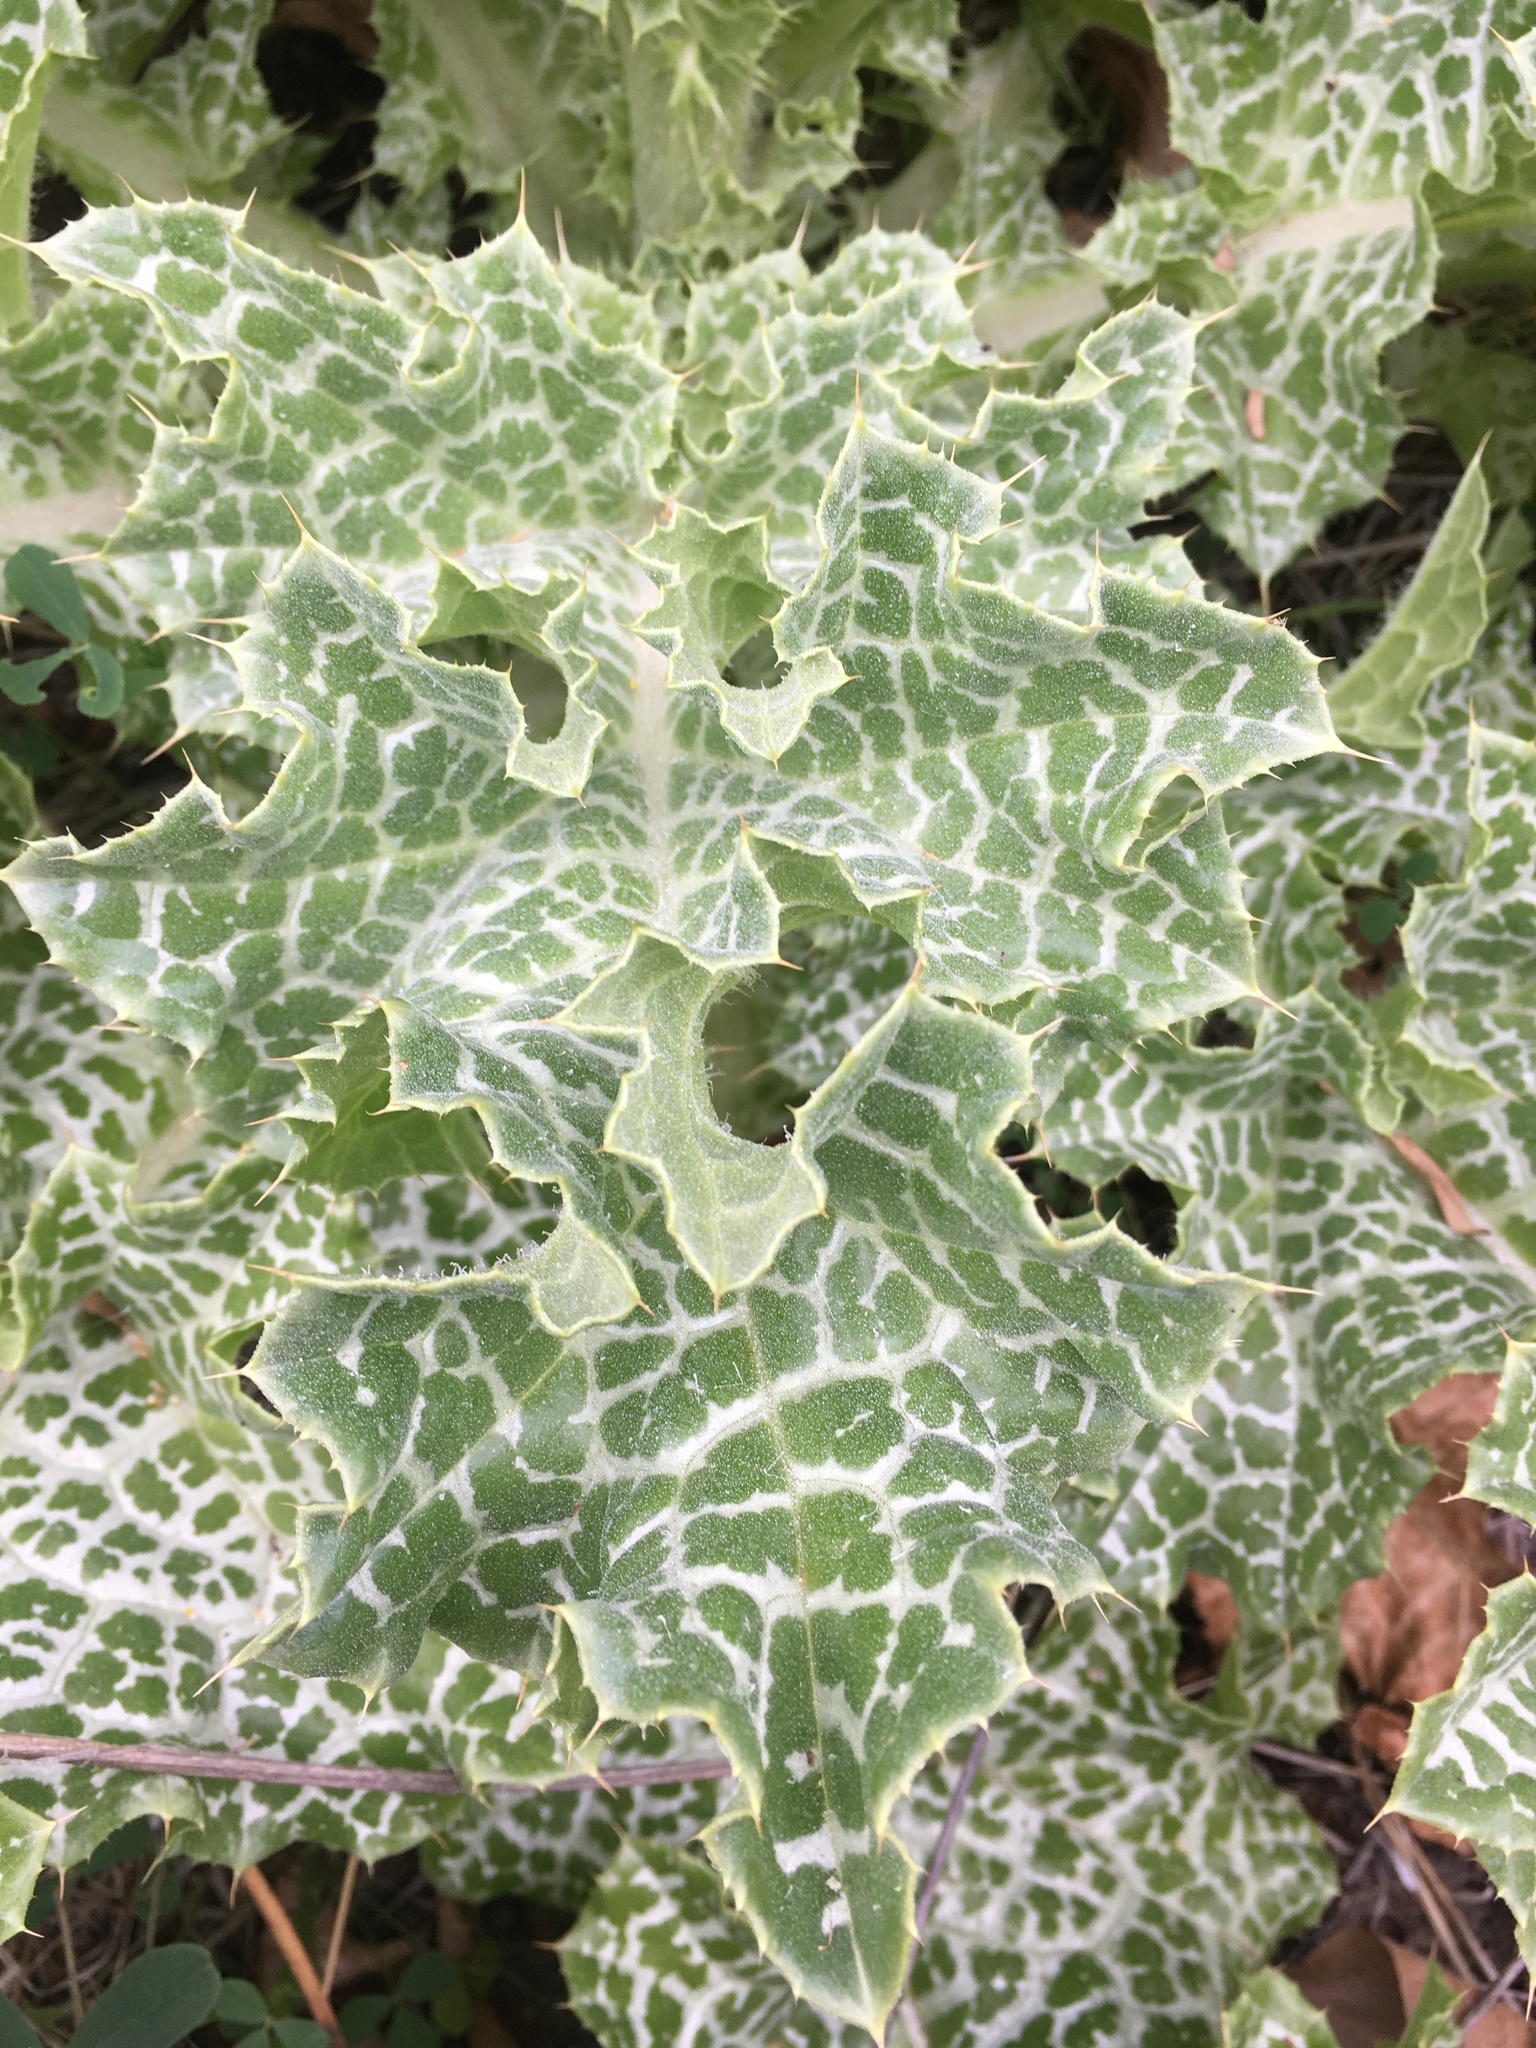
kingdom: Plantae
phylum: Tracheophyta
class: Magnoliopsida
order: Asterales
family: Asteraceae
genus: Silybum
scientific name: Silybum marianum
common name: Milk thistle
